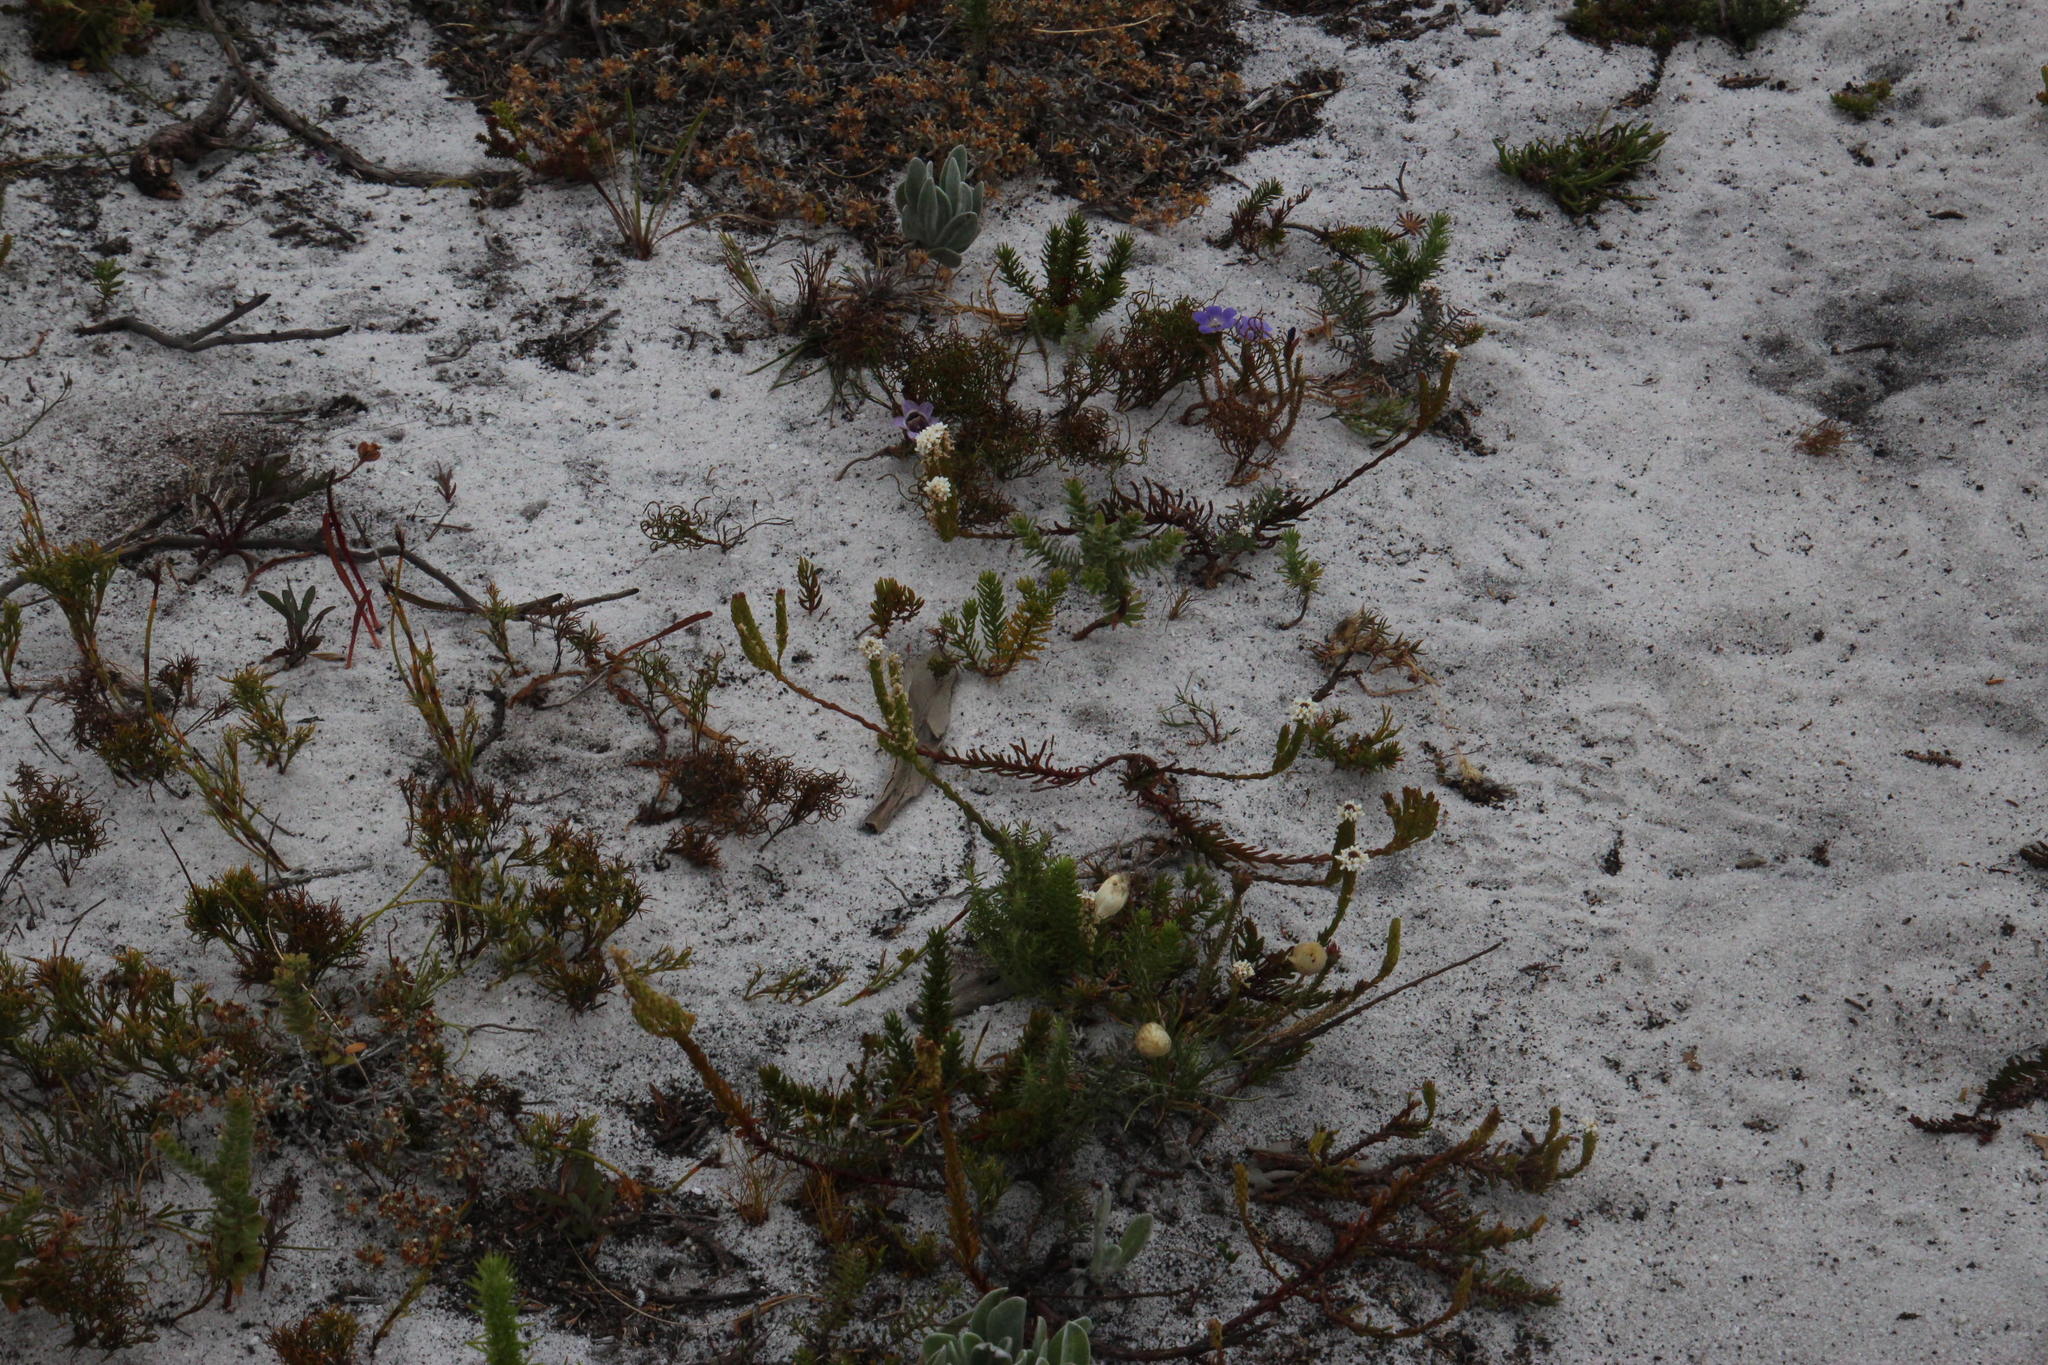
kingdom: Plantae
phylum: Tracheophyta
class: Magnoliopsida
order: Lamiales
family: Scrophulariaceae
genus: Pseudoselago
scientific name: Pseudoselago gracilis
